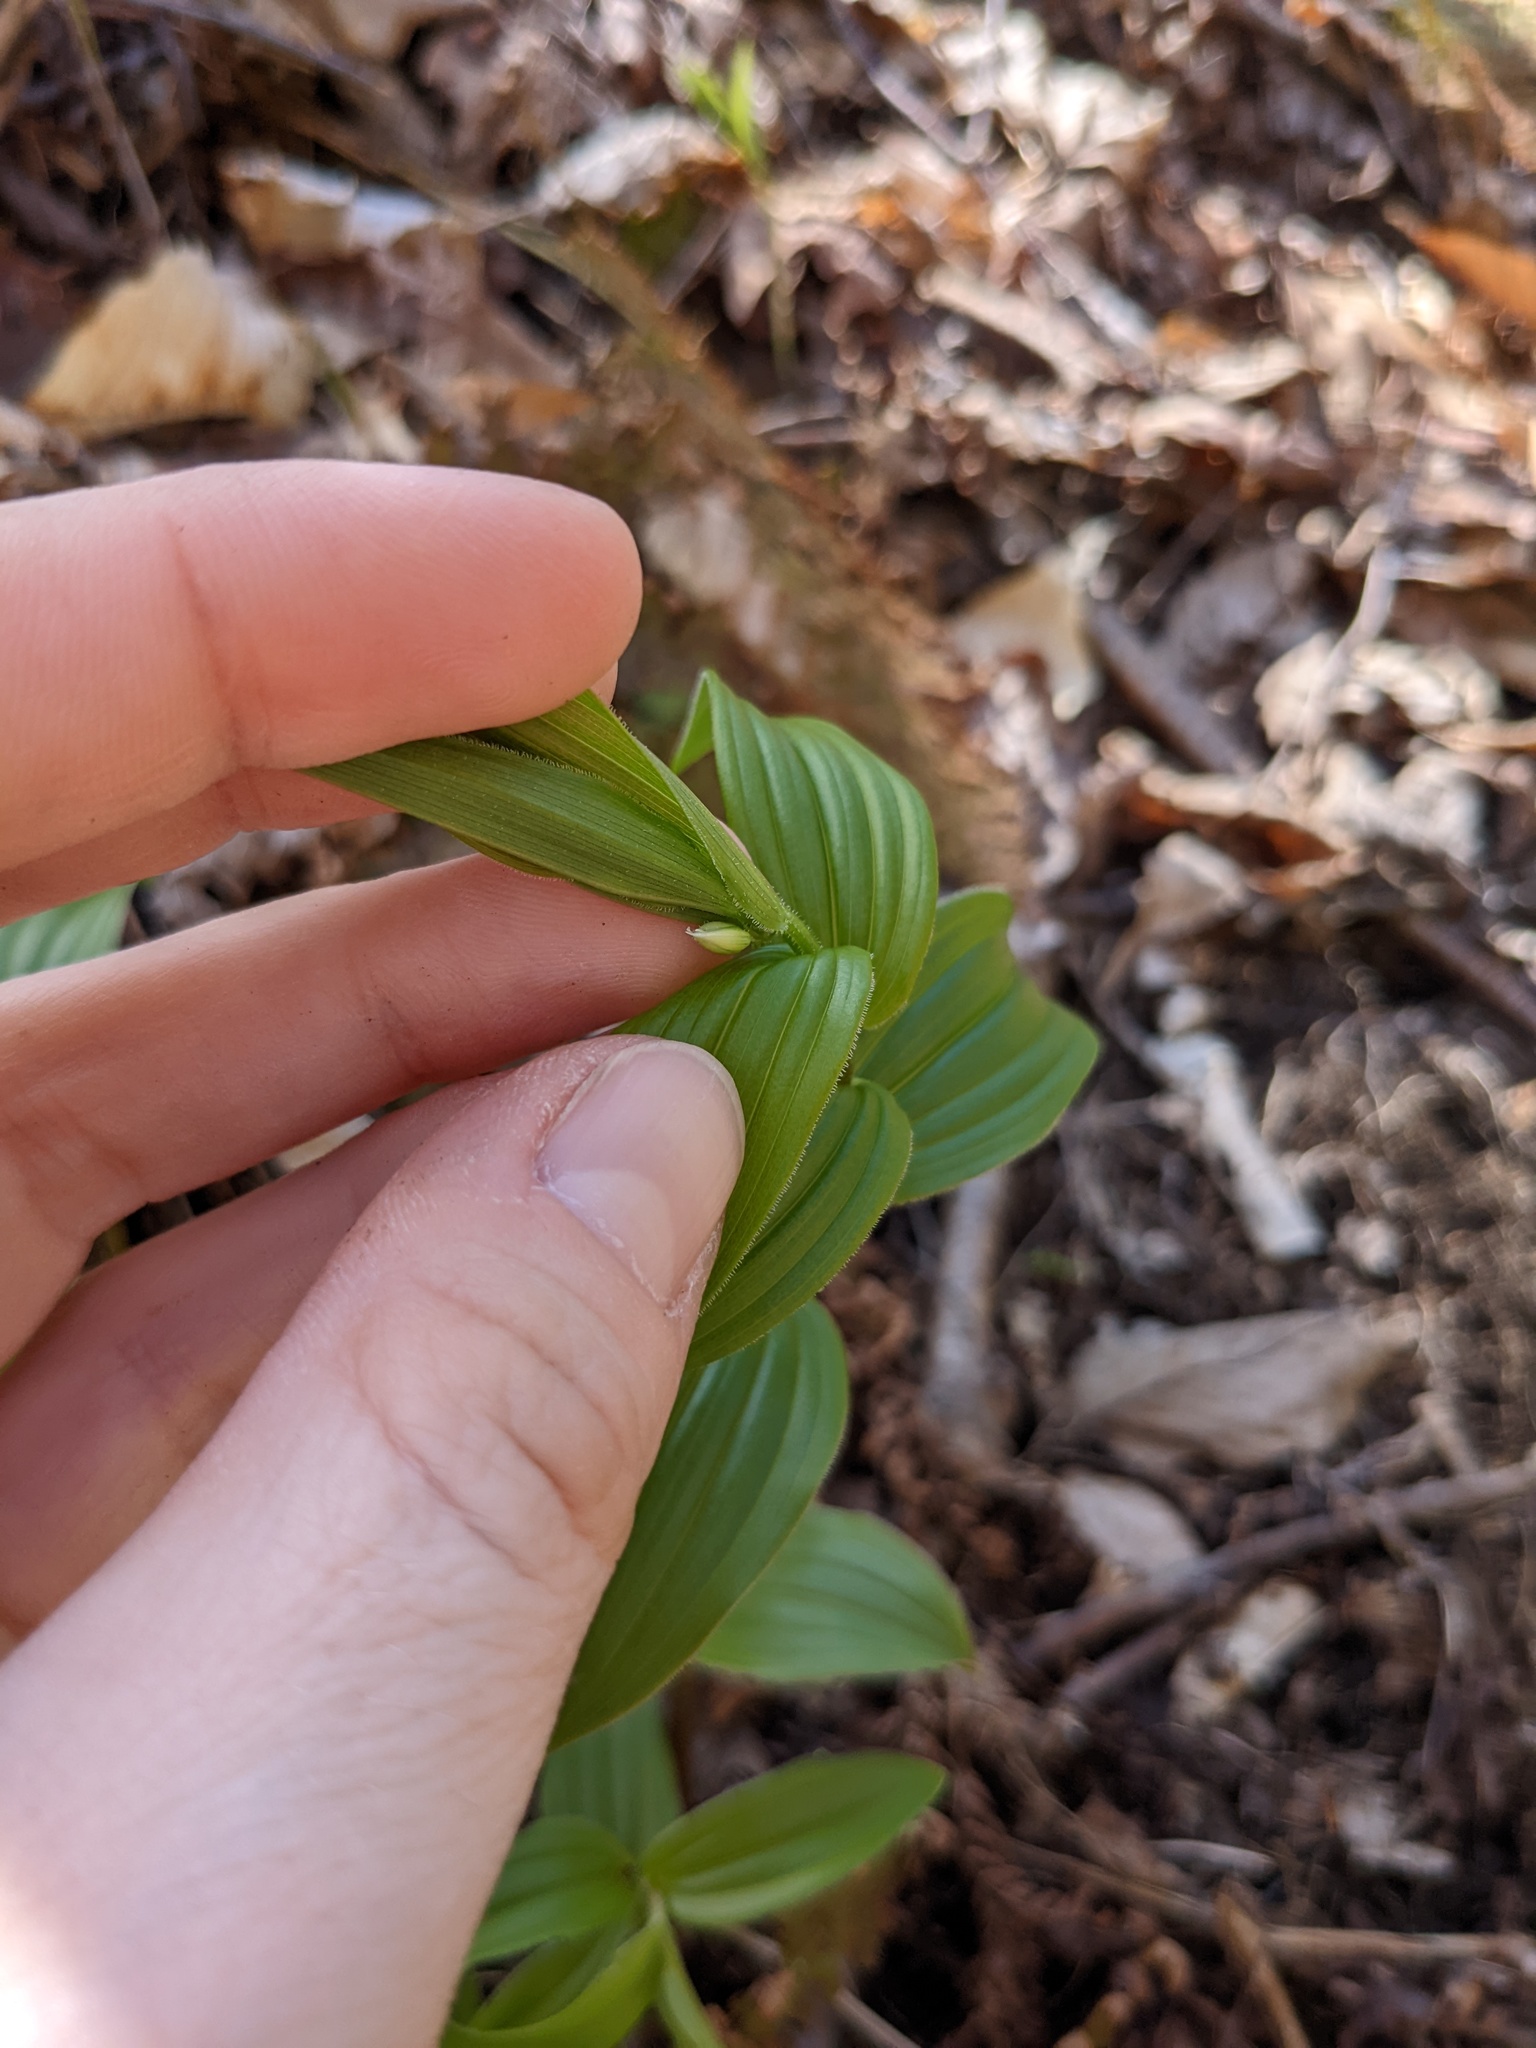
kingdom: Plantae
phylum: Tracheophyta
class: Liliopsida
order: Liliales
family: Liliaceae
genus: Streptopus
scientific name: Streptopus lanceolatus
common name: Rose mandarin
